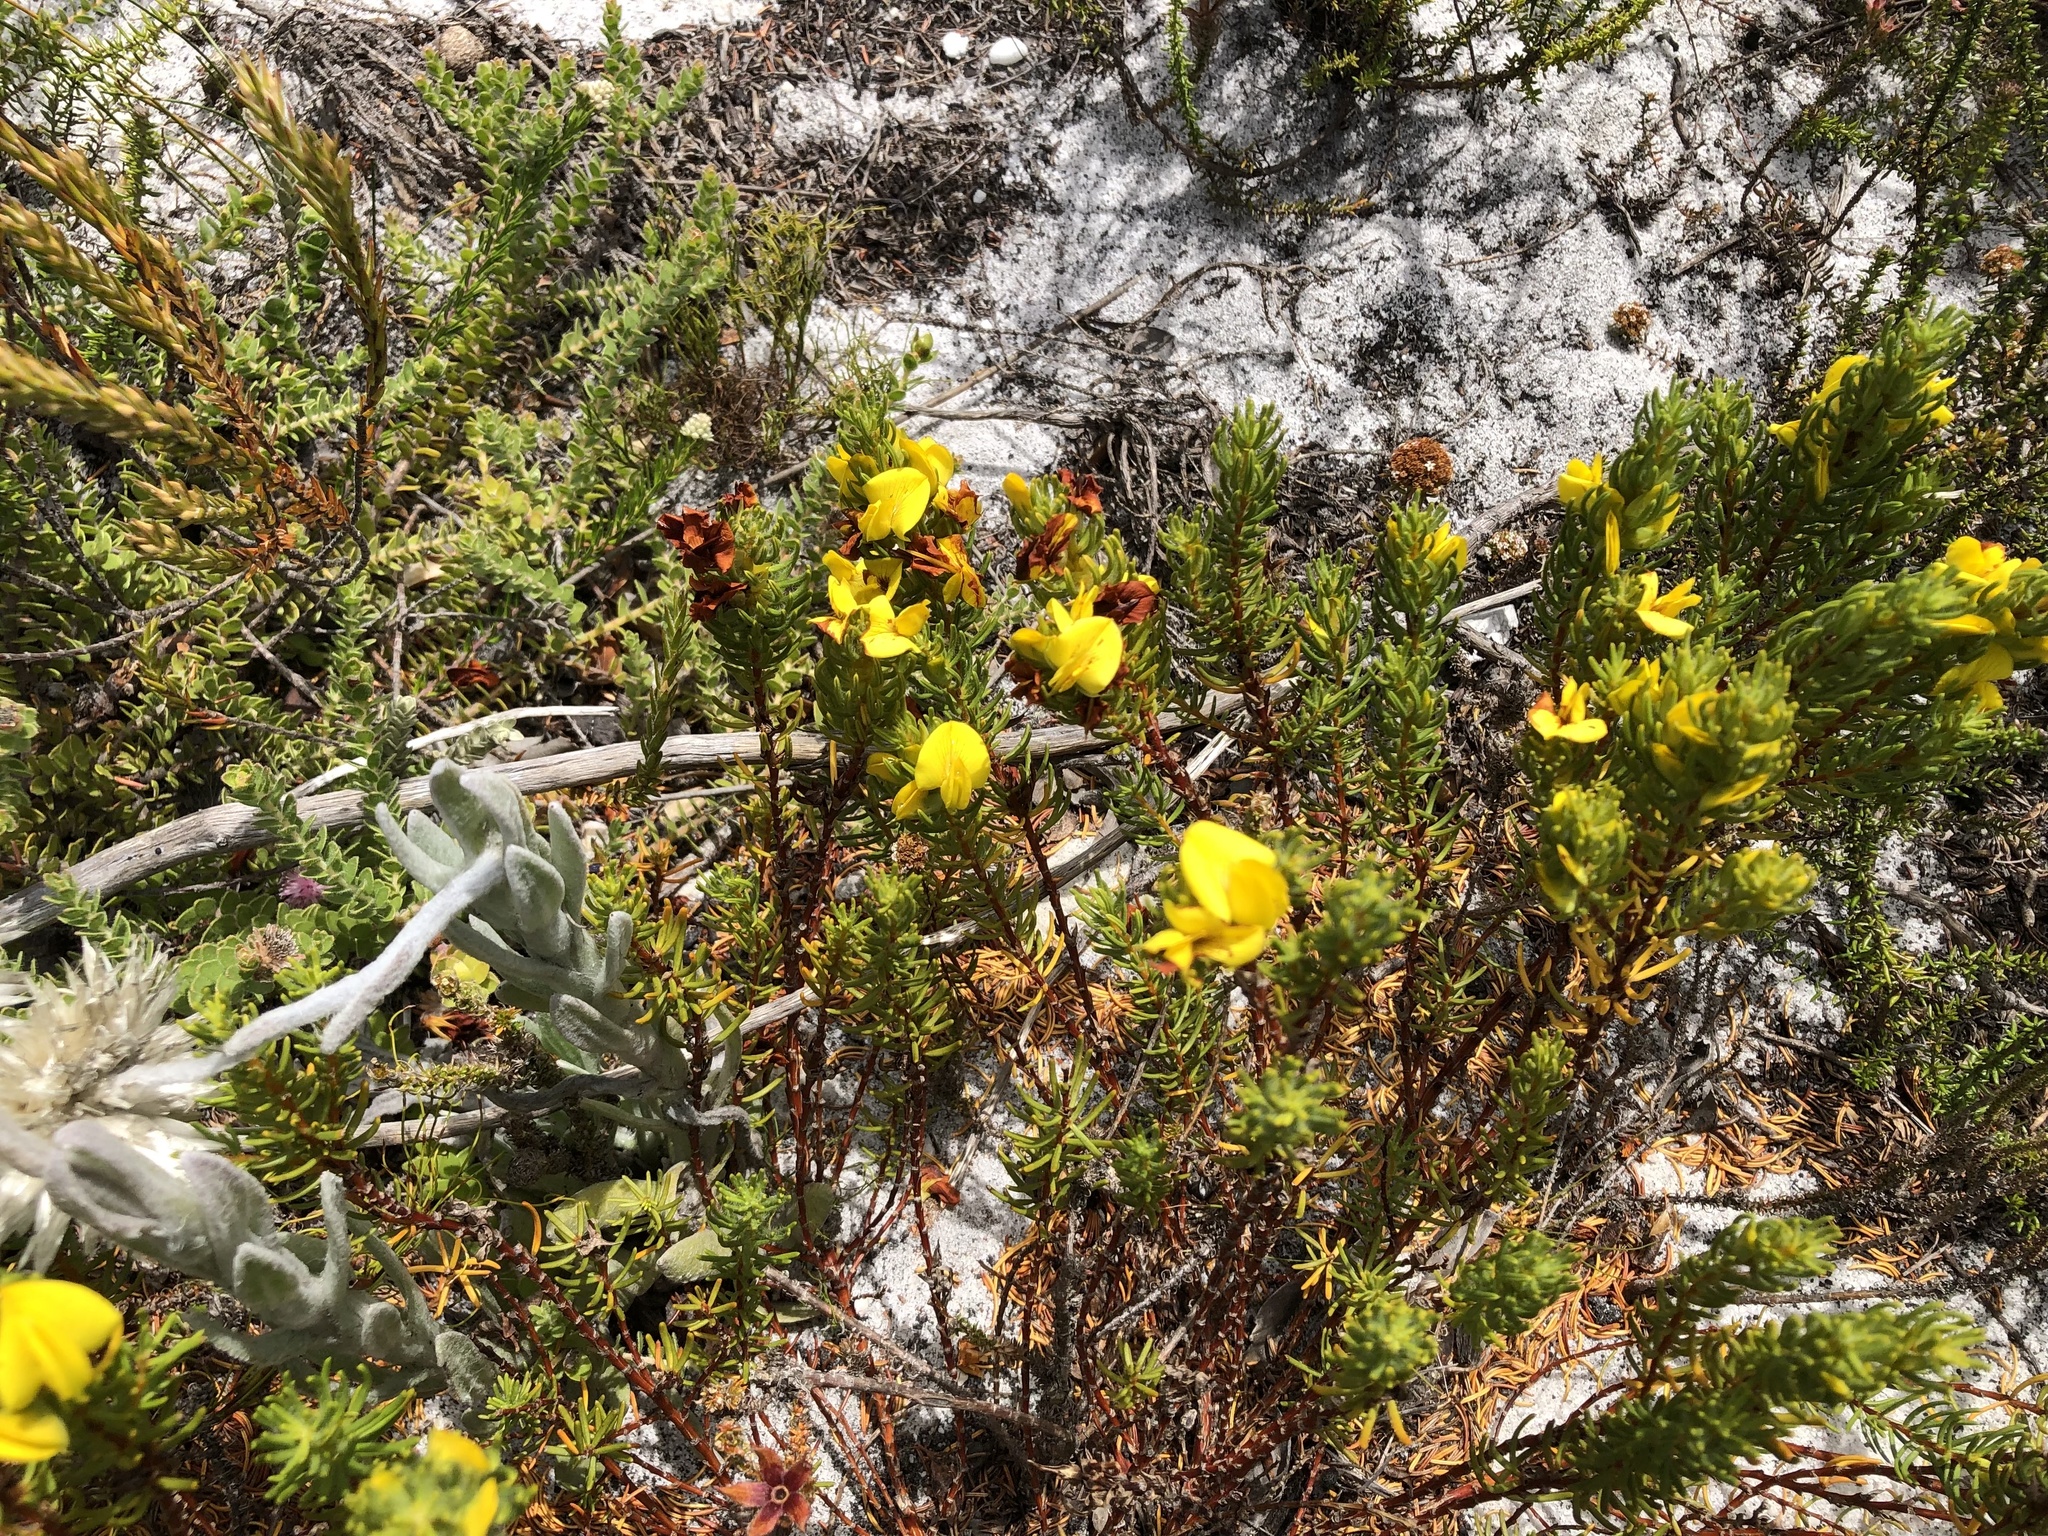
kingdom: Plantae
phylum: Tracheophyta
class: Magnoliopsida
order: Fabales
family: Fabaceae
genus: Cyclopia
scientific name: Cyclopia galioides
